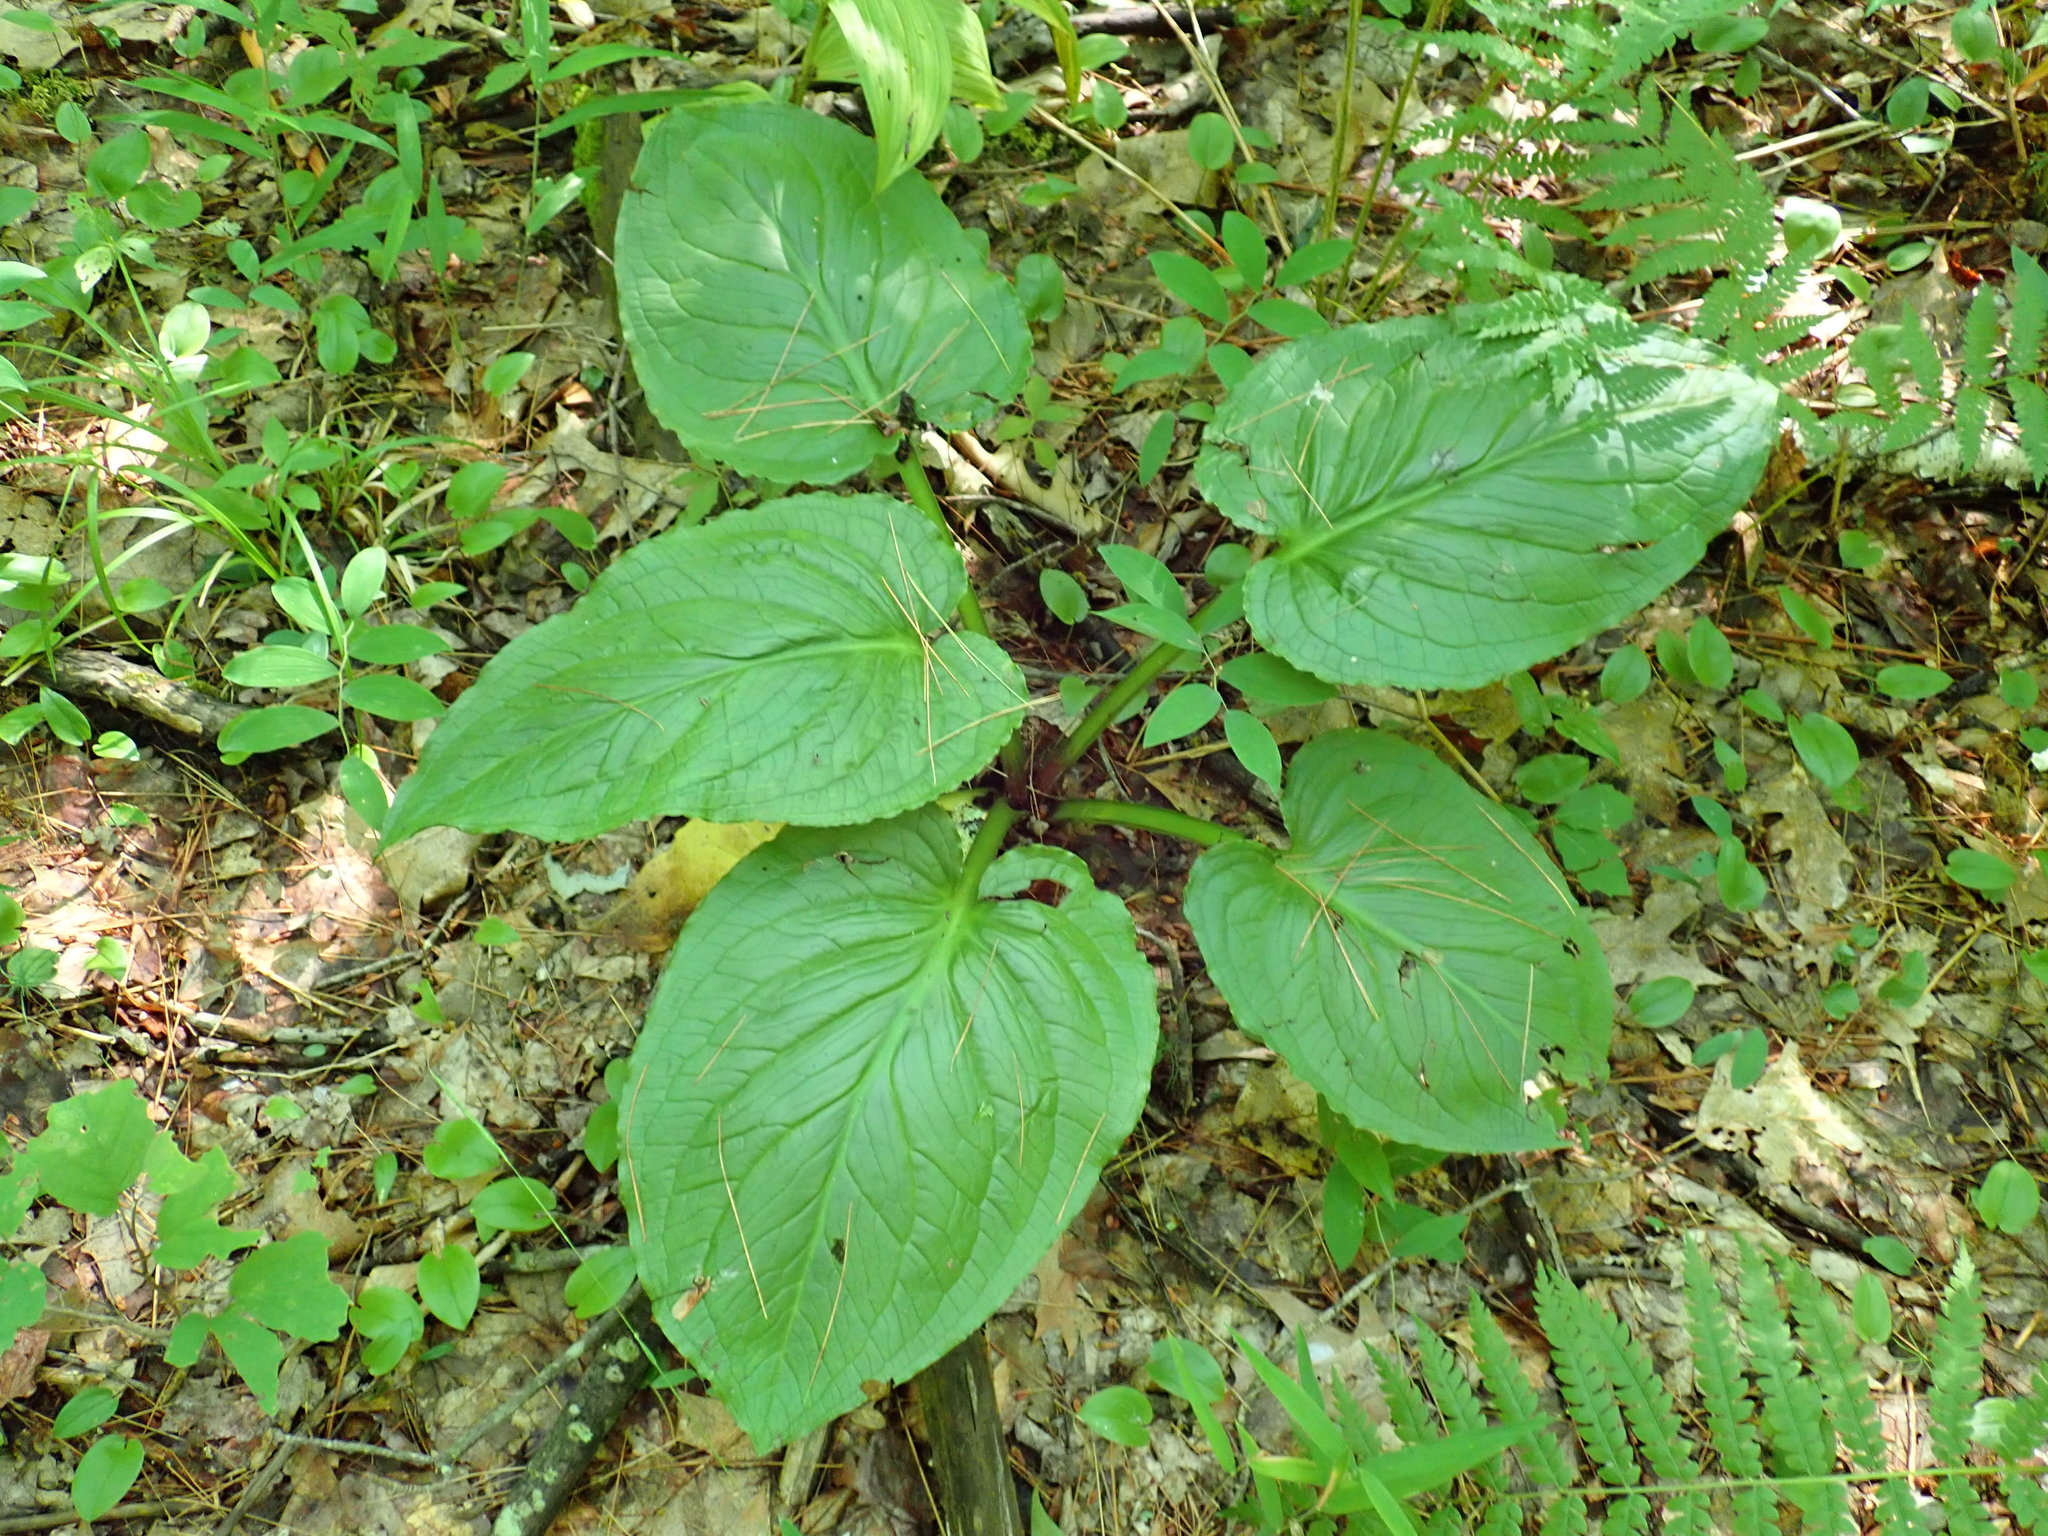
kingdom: Plantae
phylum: Tracheophyta
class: Liliopsida
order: Alismatales
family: Araceae
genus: Symplocarpus
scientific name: Symplocarpus foetidus
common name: Eastern skunk cabbage
